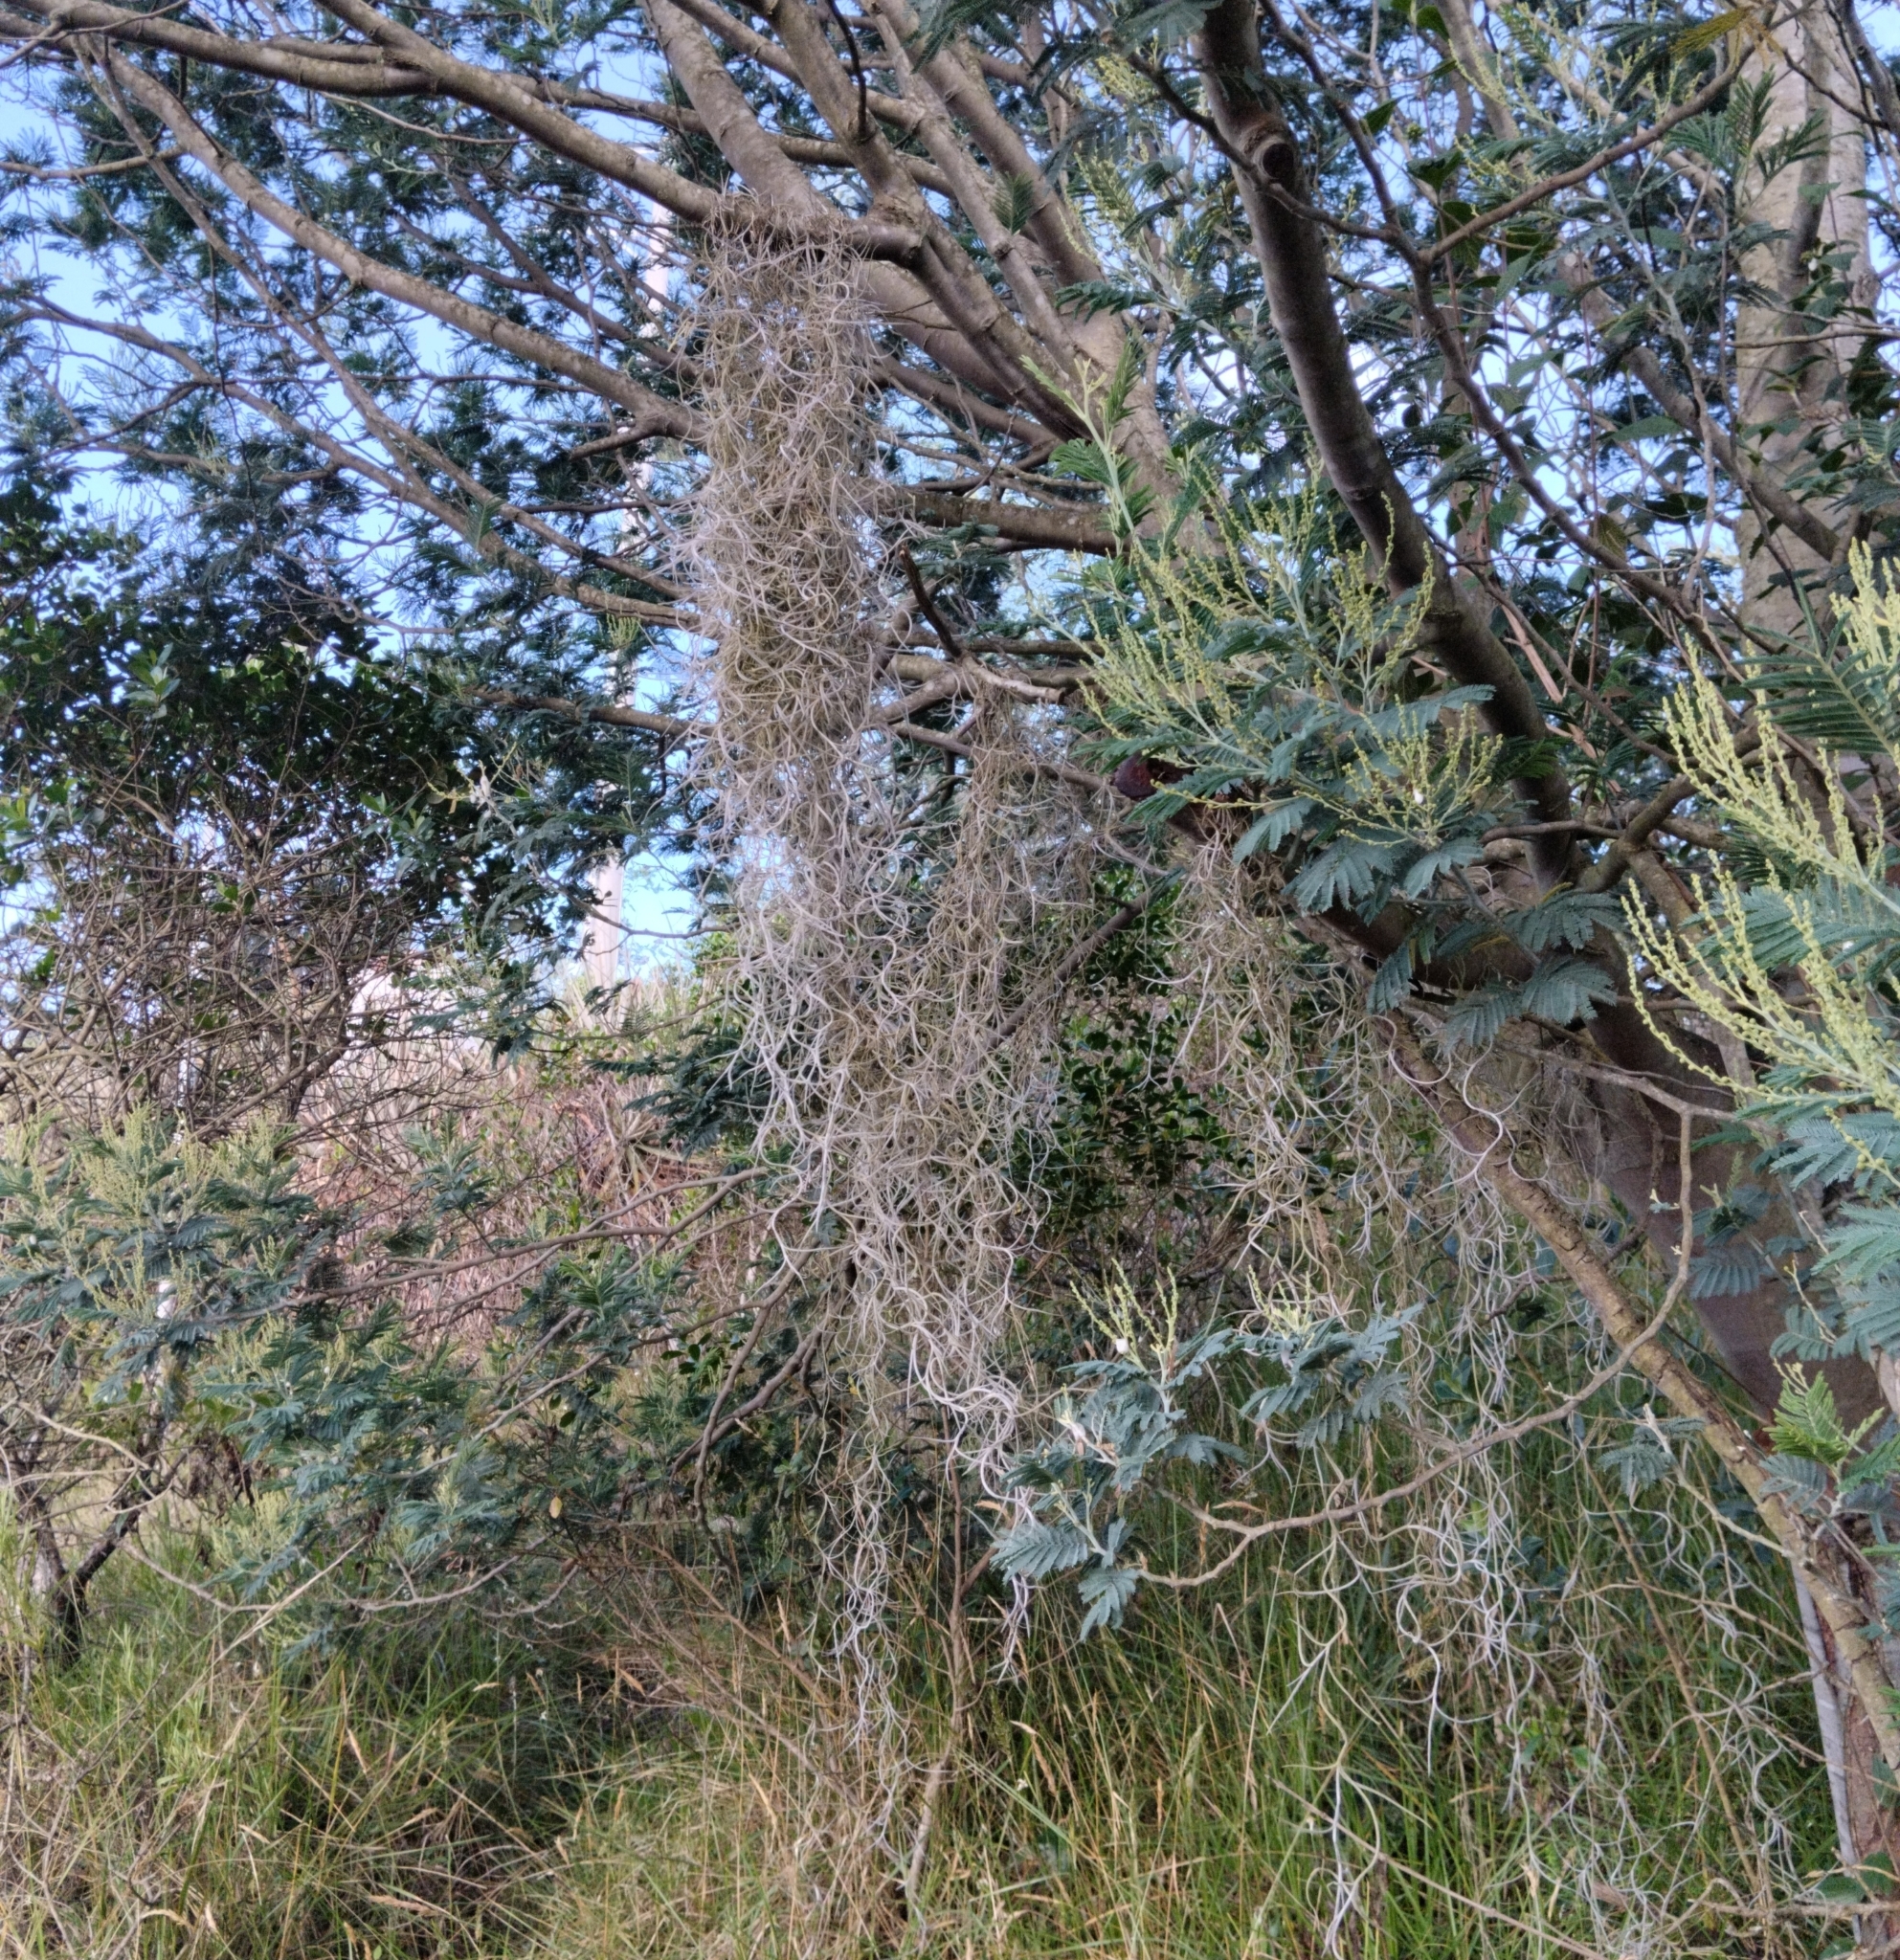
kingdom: Plantae
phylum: Tracheophyta
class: Liliopsida
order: Poales
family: Bromeliaceae
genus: Tillandsia
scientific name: Tillandsia usneoides
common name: Spanish moss
